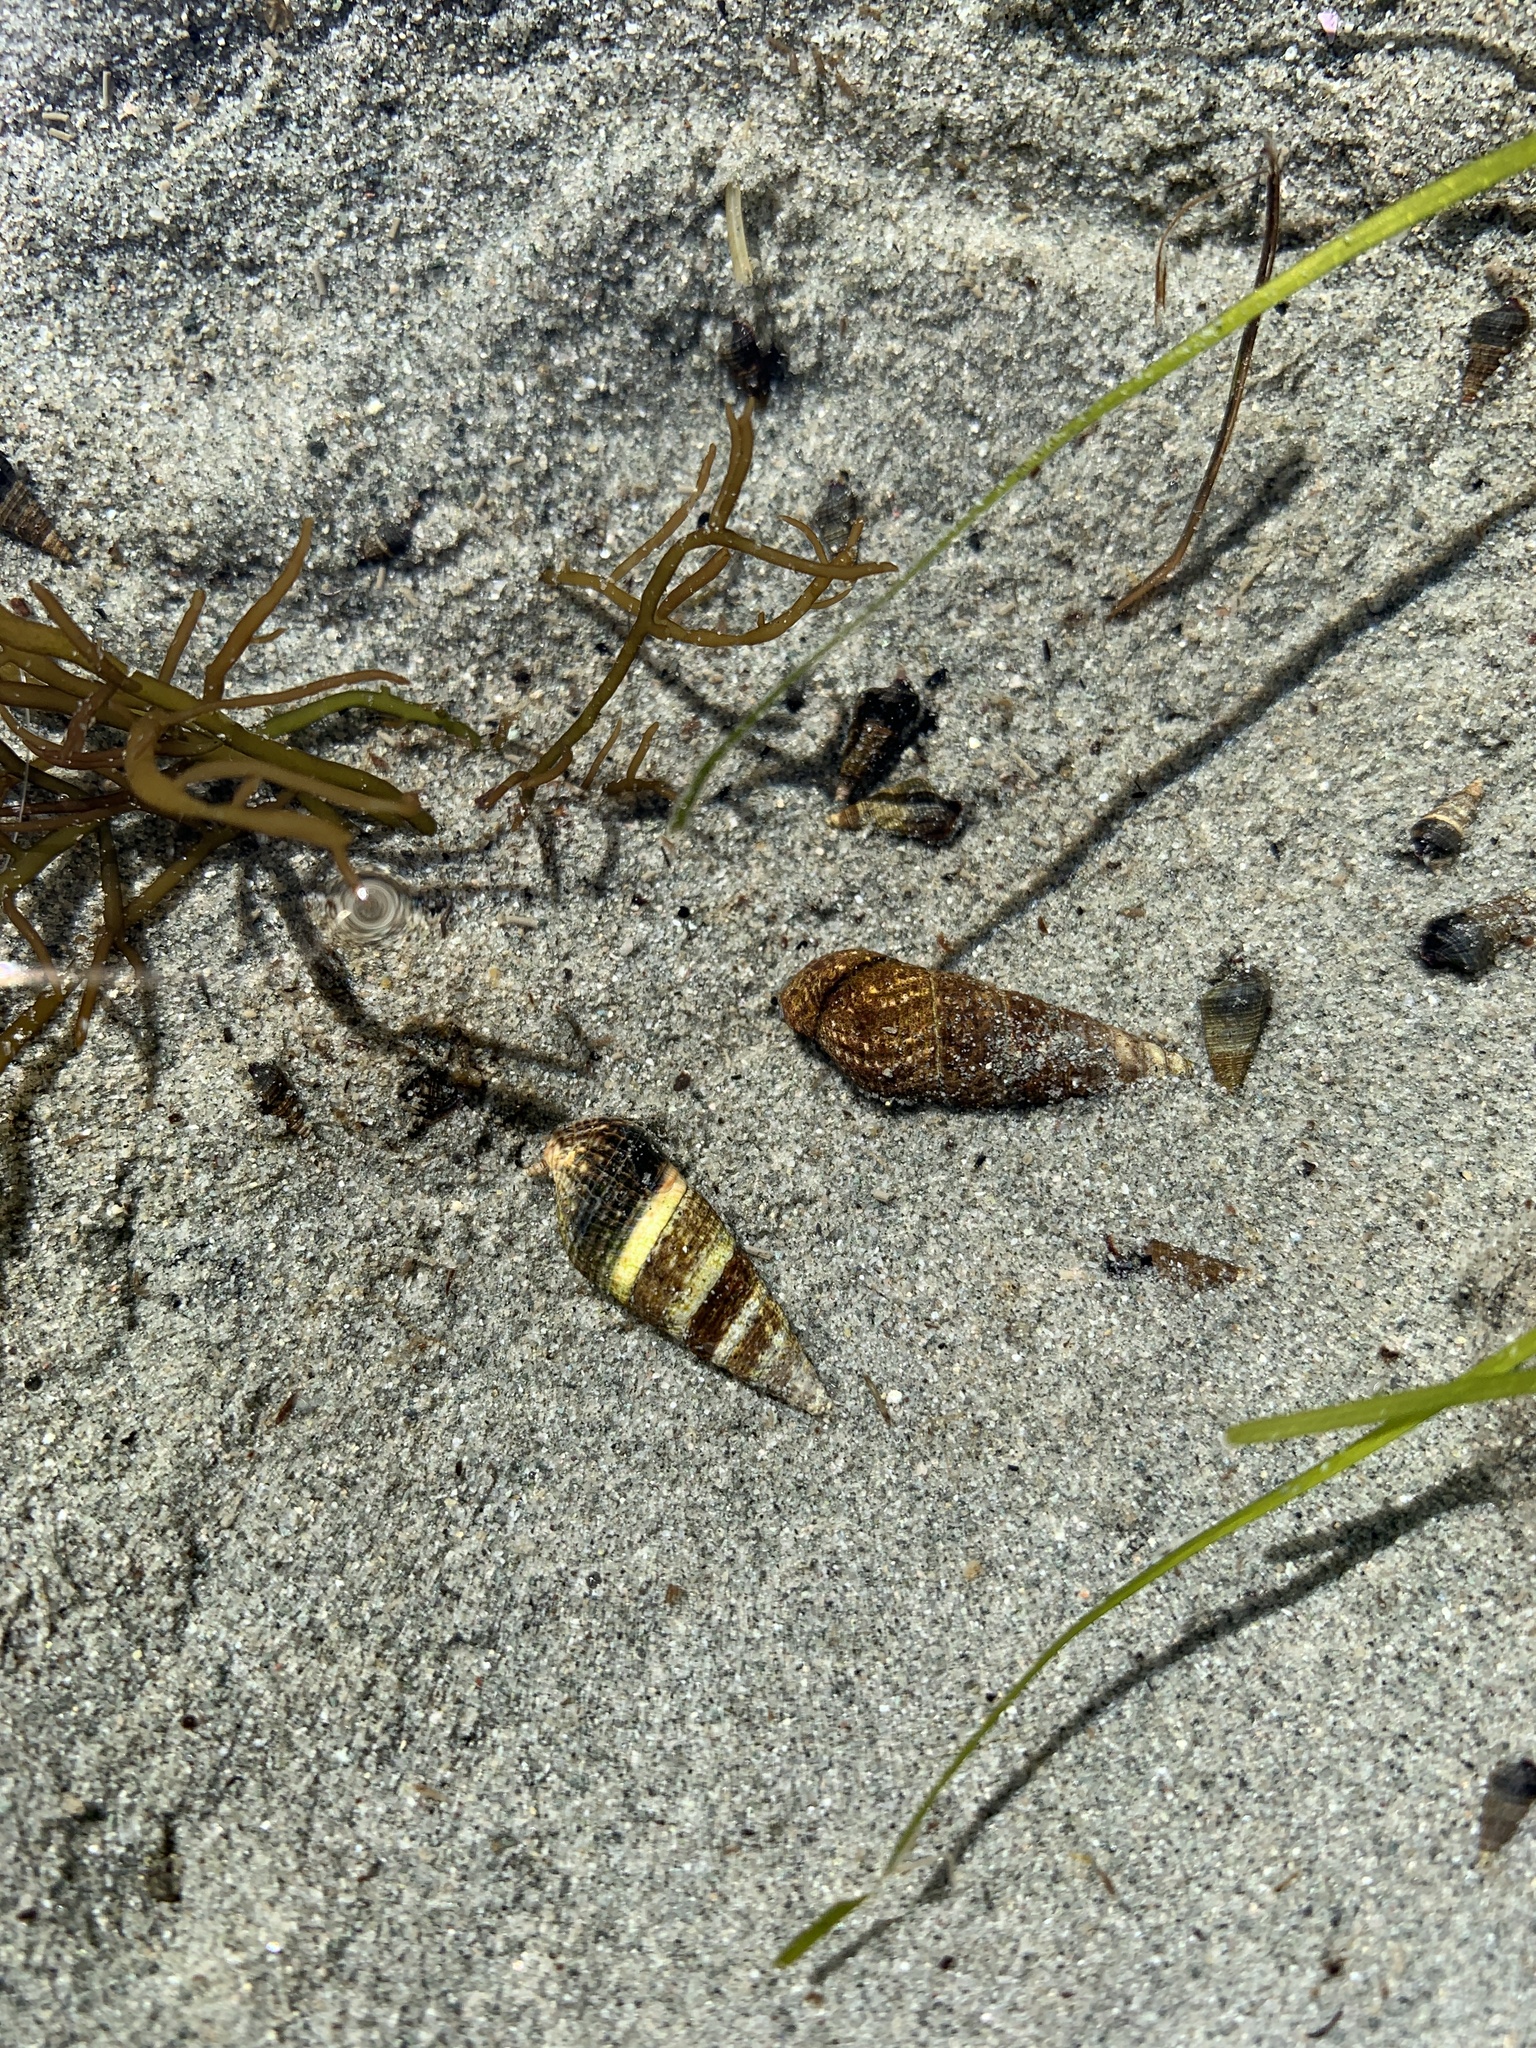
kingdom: Animalia
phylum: Mollusca
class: Gastropoda
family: Batillariidae
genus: Batillaria
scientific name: Batillaria attramentaria
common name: Japanese false cerith
